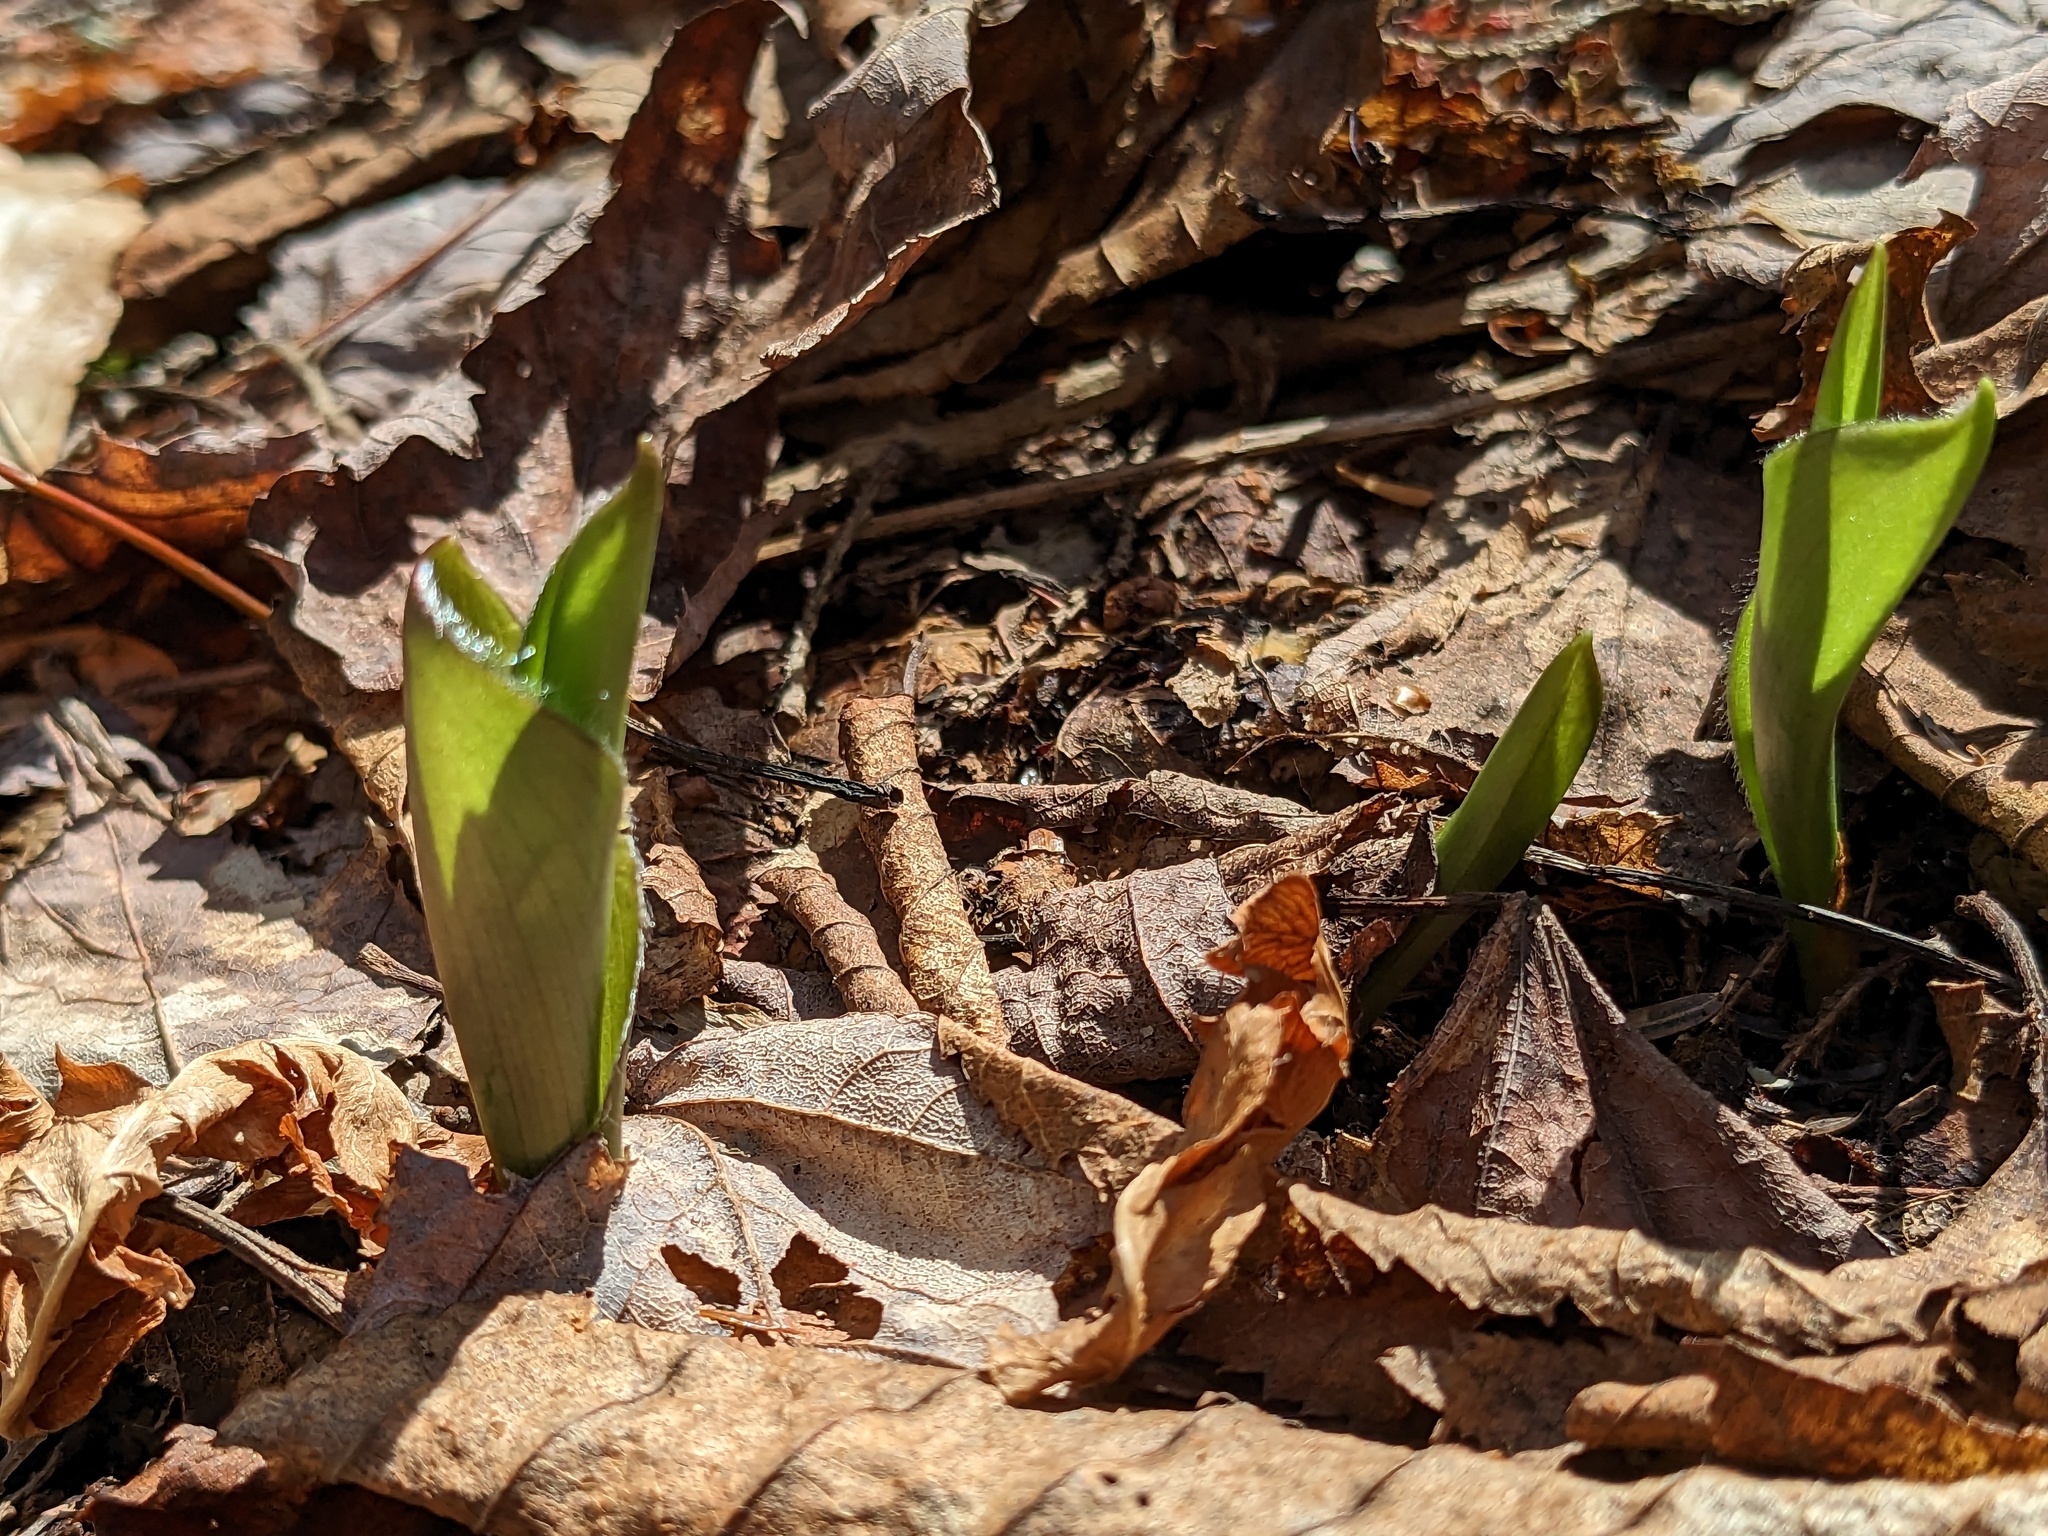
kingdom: Plantae
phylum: Tracheophyta
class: Liliopsida
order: Liliales
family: Liliaceae
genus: Clintonia
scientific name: Clintonia borealis
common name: Yellow clintonia
